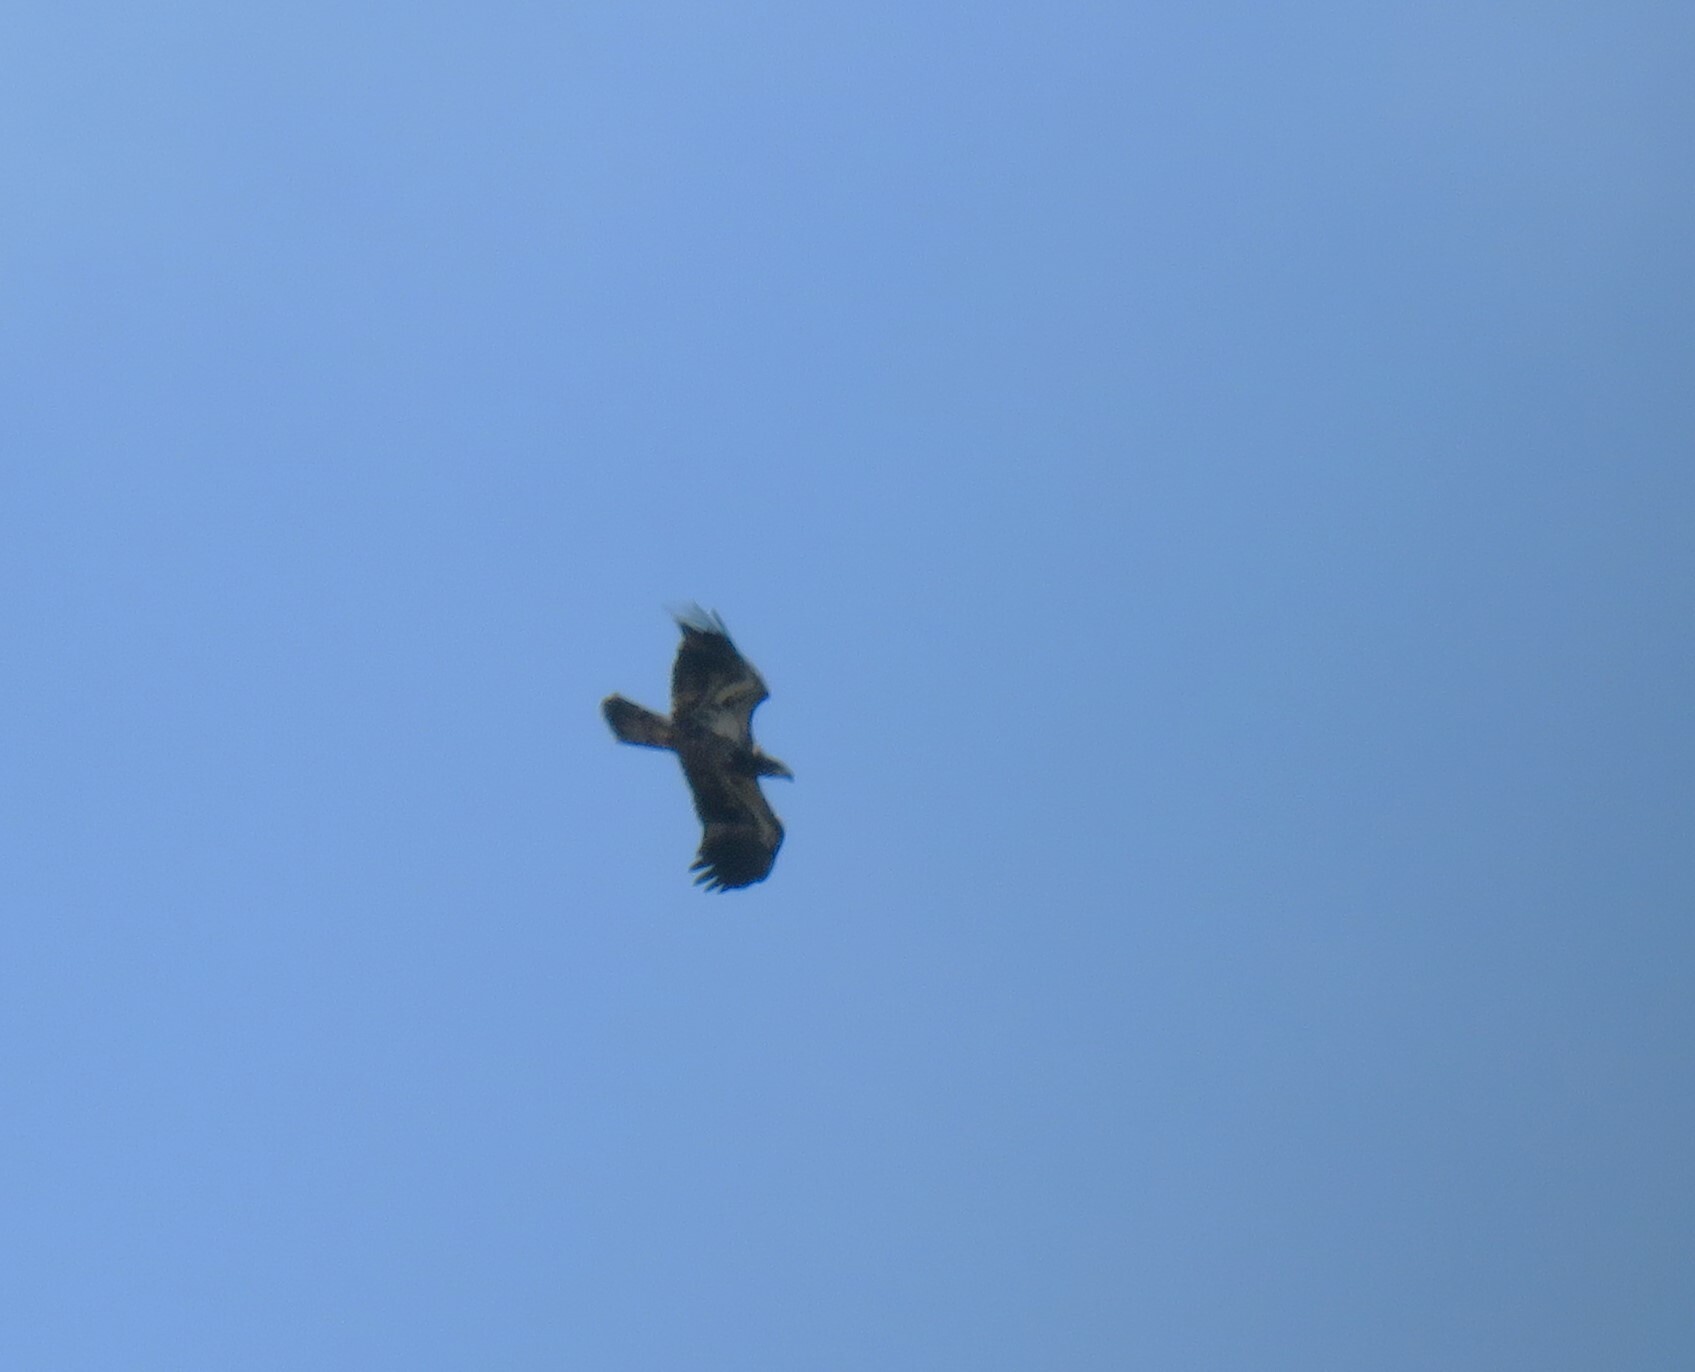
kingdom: Animalia
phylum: Chordata
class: Aves
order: Accipitriformes
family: Accipitridae
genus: Haliaeetus
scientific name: Haliaeetus leucocephalus
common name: Bald eagle
